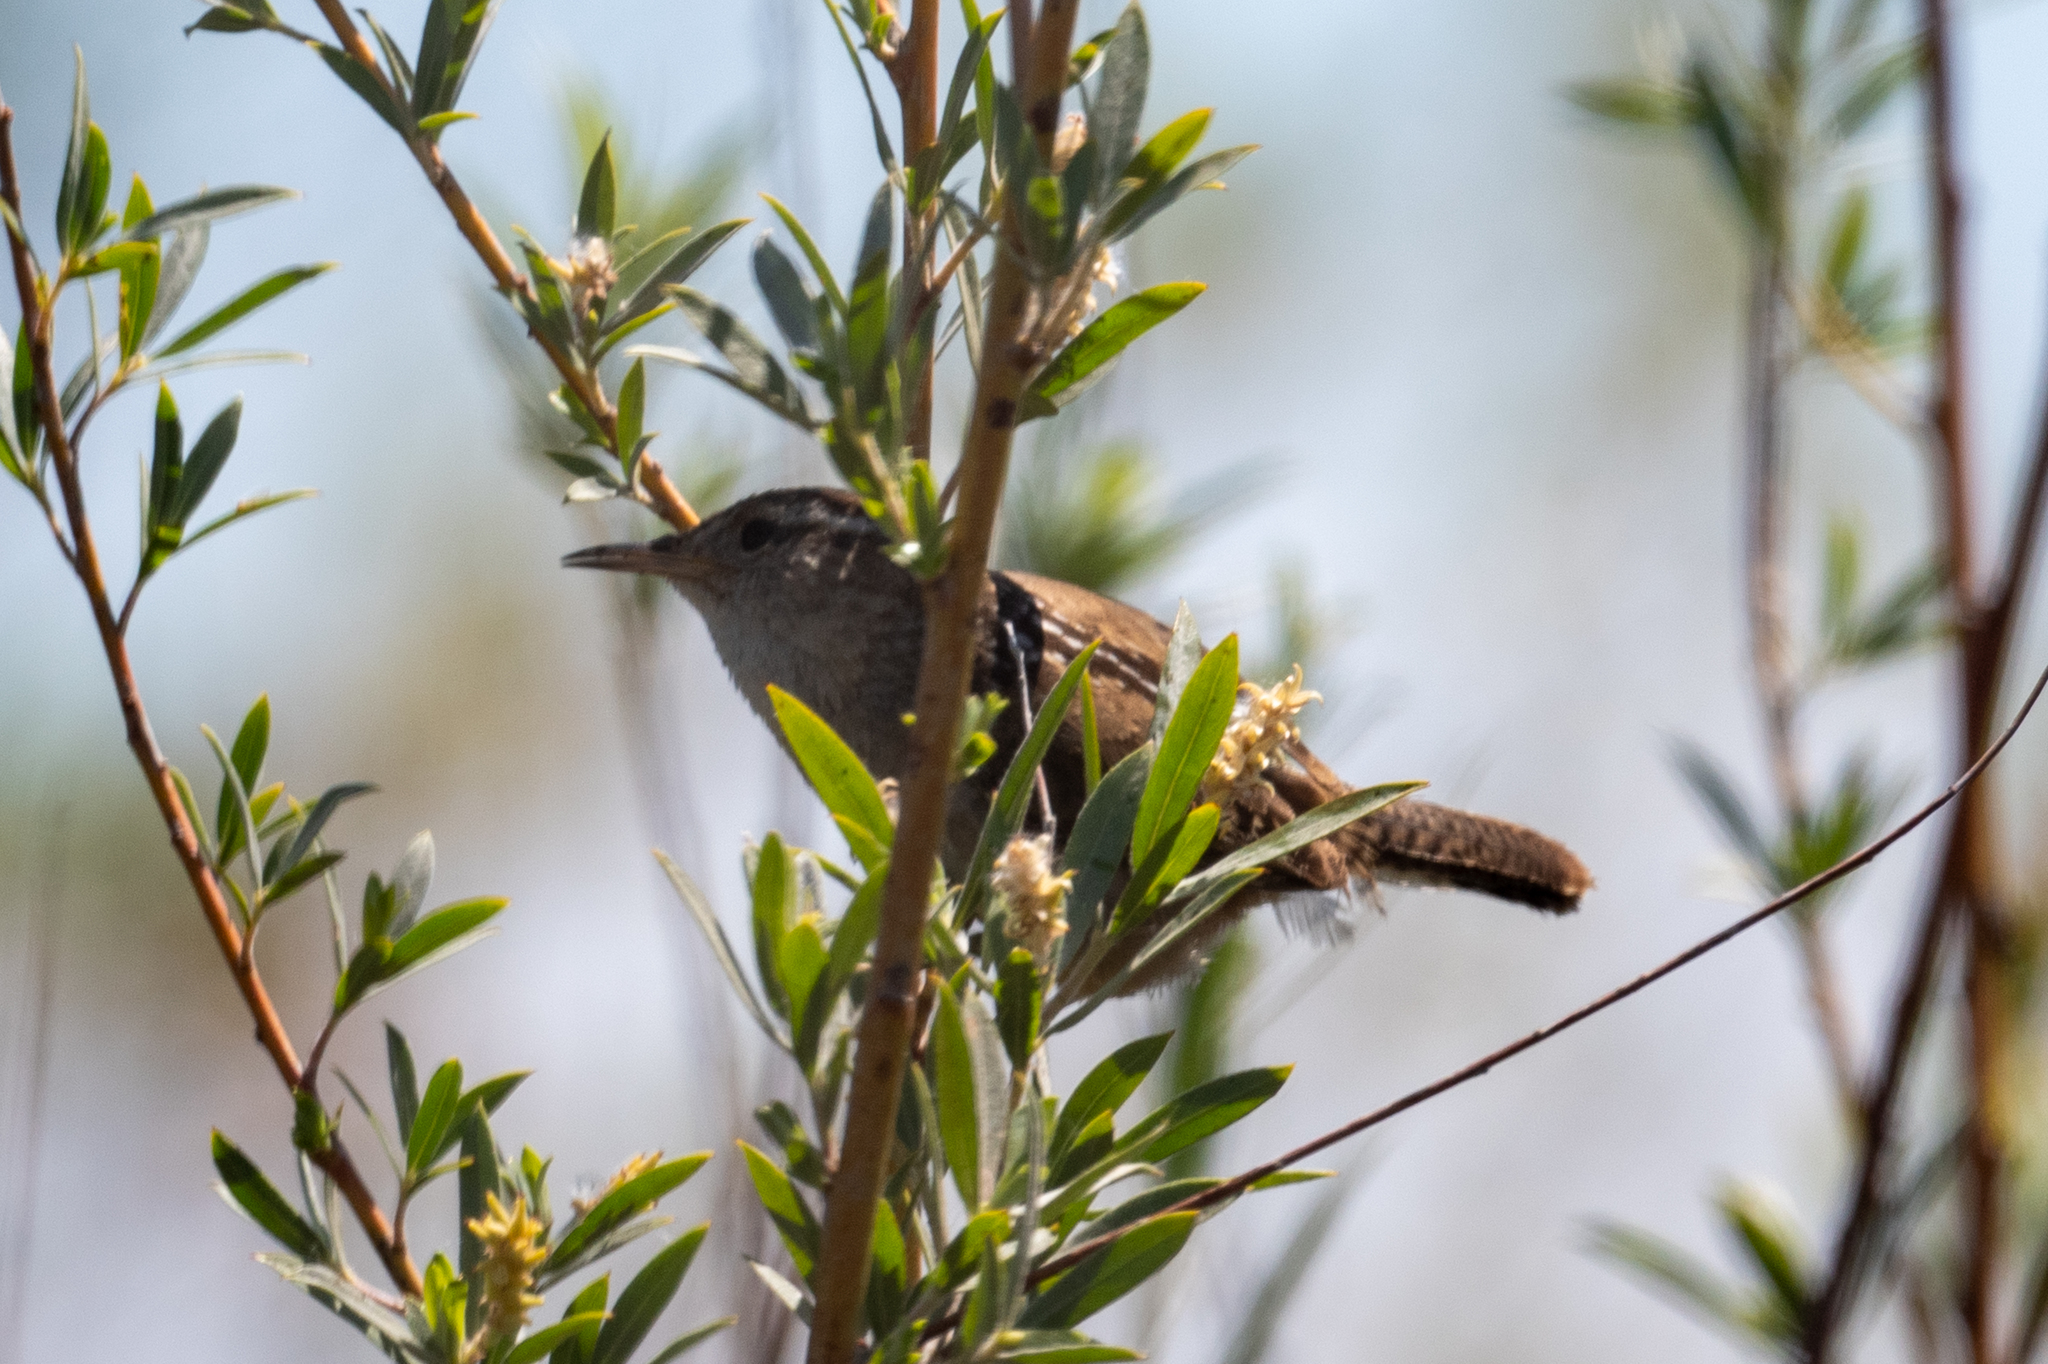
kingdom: Animalia
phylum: Chordata
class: Aves
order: Passeriformes
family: Troglodytidae
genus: Cistothorus
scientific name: Cistothorus palustris
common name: Marsh wren
